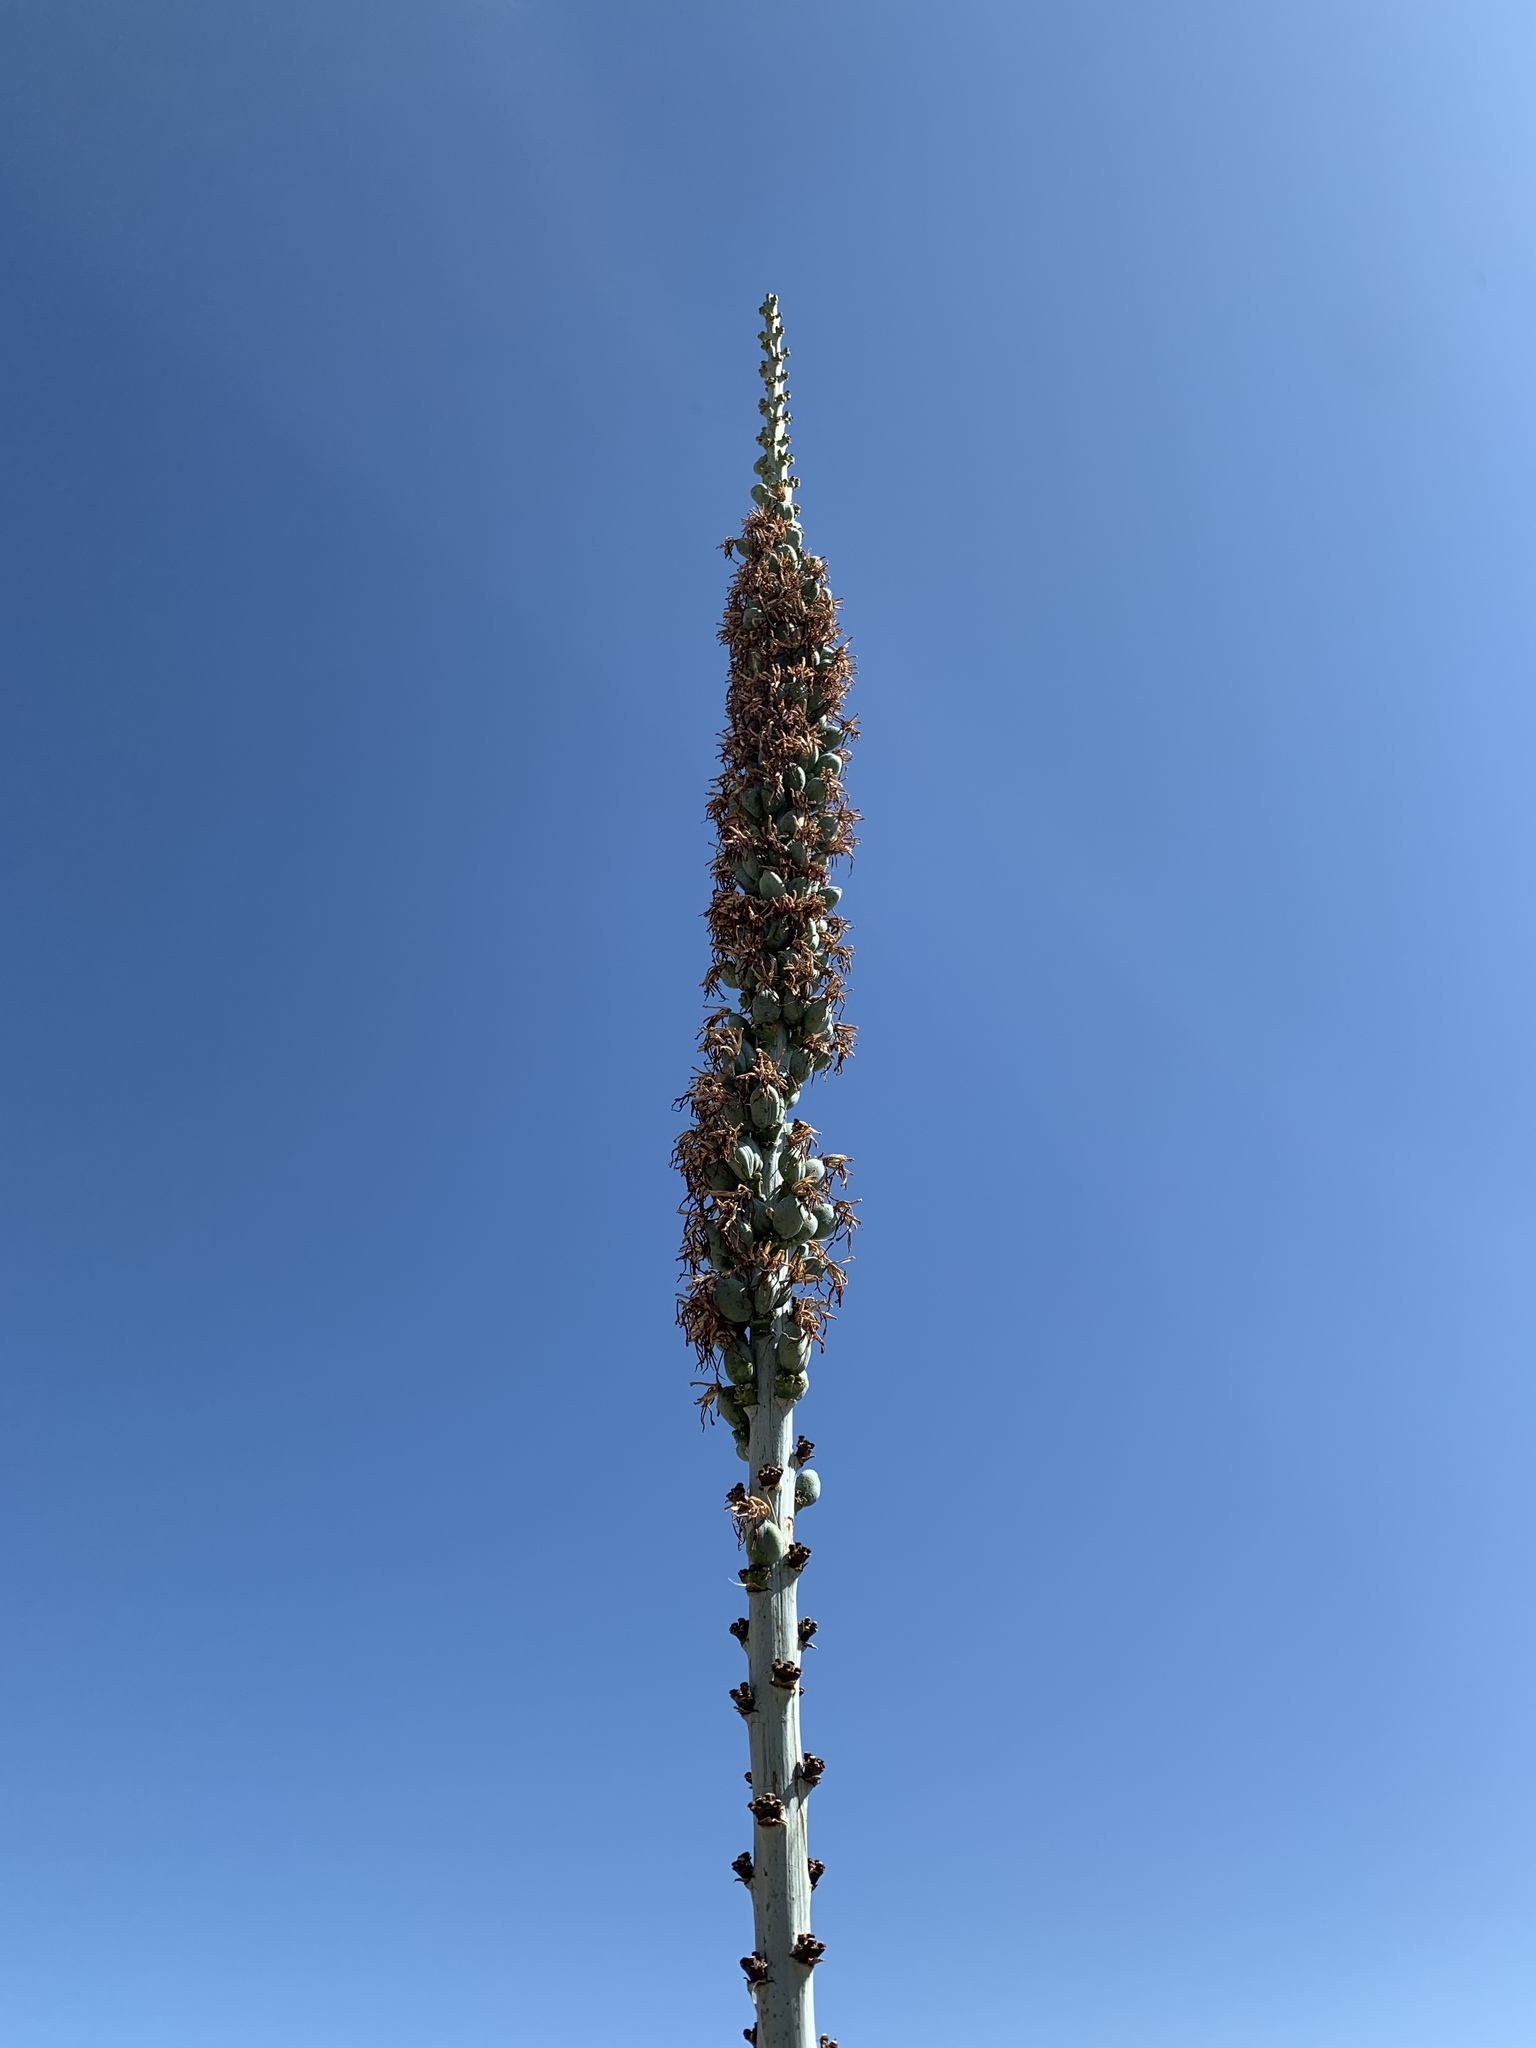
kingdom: Plantae
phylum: Tracheophyta
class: Liliopsida
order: Asparagales
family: Asparagaceae
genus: Agave
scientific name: Agave lechuguilla
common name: Lecheguilla agave
